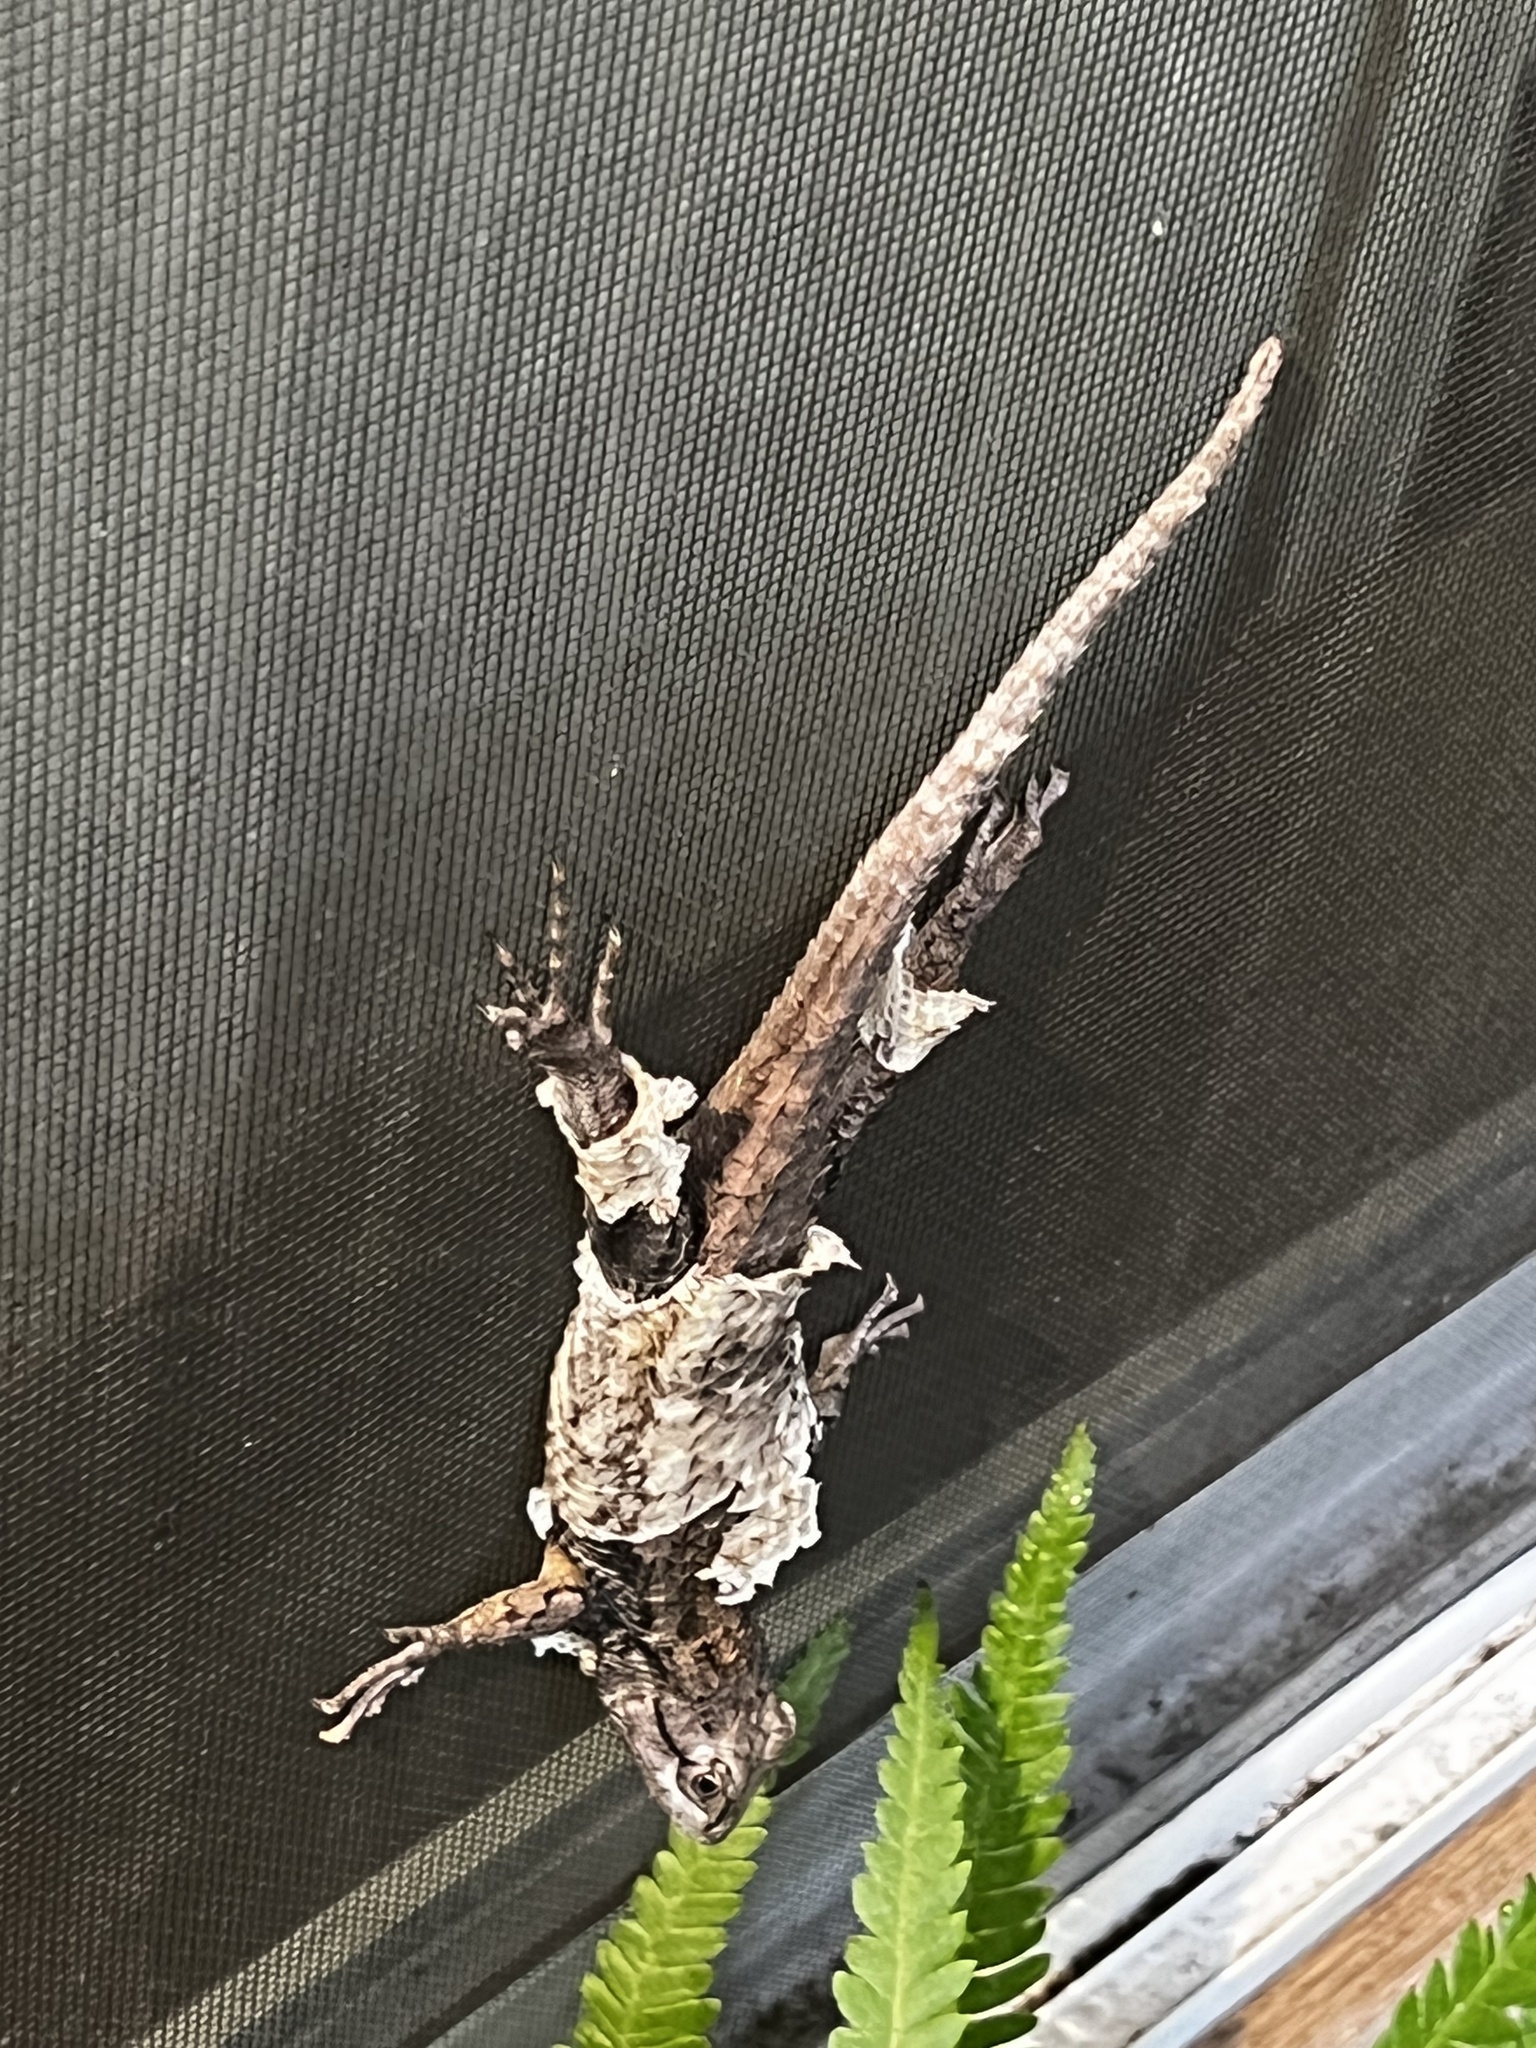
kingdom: Animalia
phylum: Chordata
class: Squamata
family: Phrynosomatidae
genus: Sceloporus
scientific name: Sceloporus olivaceus
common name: Texas spiny lizard
